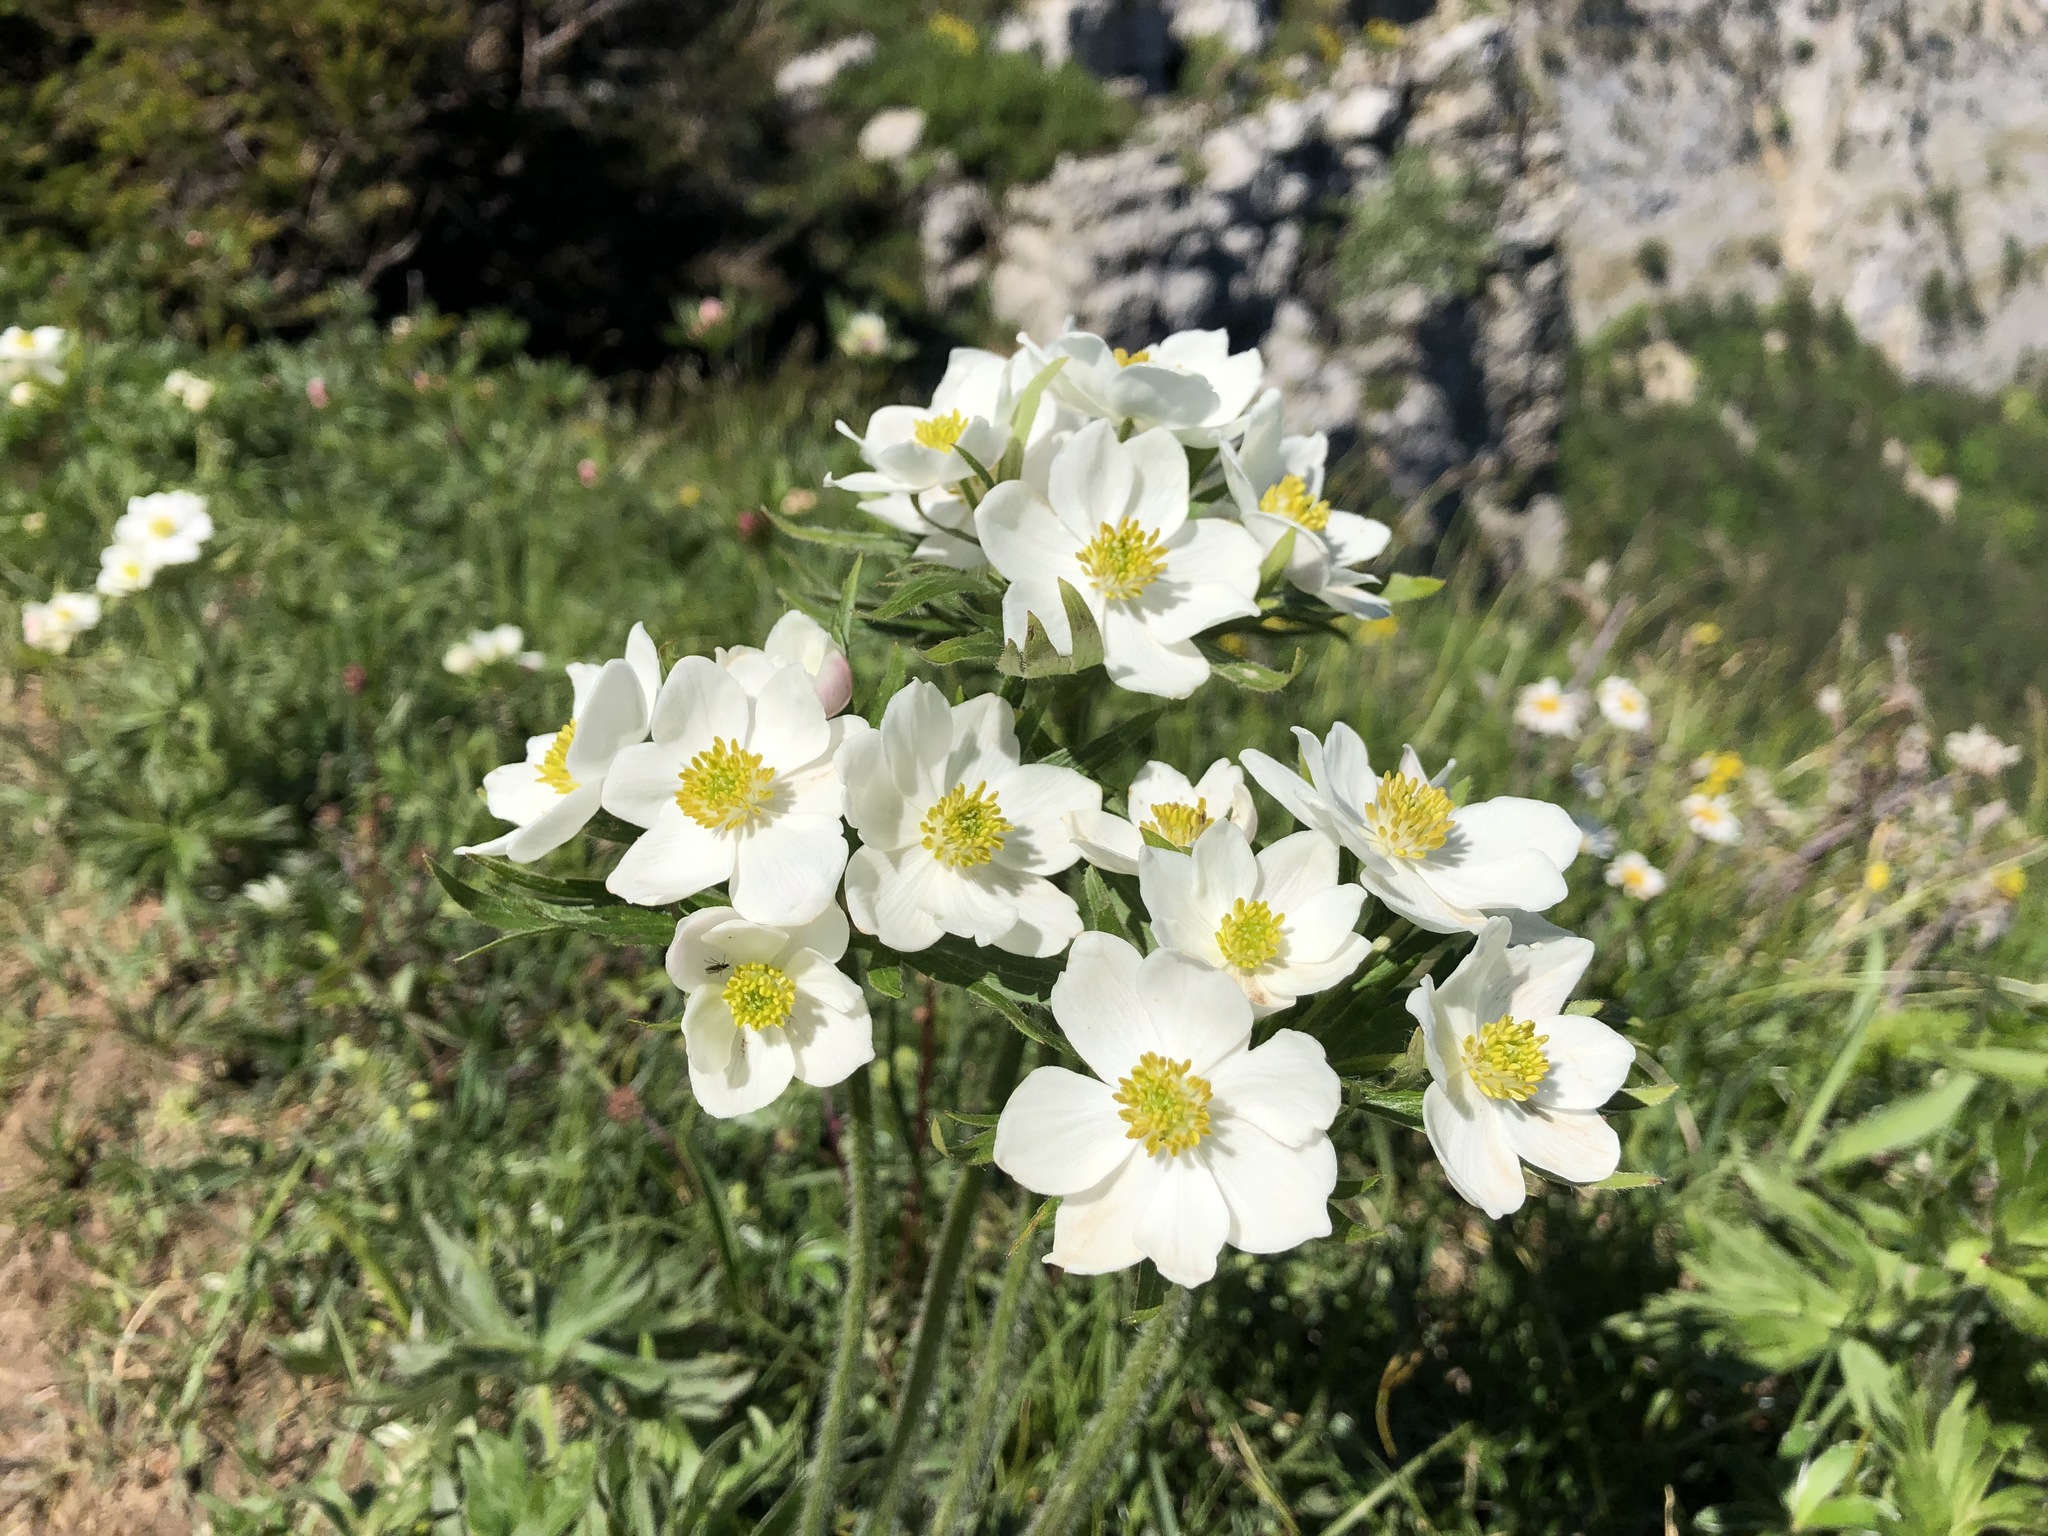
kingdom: Plantae
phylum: Tracheophyta
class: Magnoliopsida
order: Ranunculales
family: Ranunculaceae
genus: Anemonastrum
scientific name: Anemonastrum narcissiflorum
